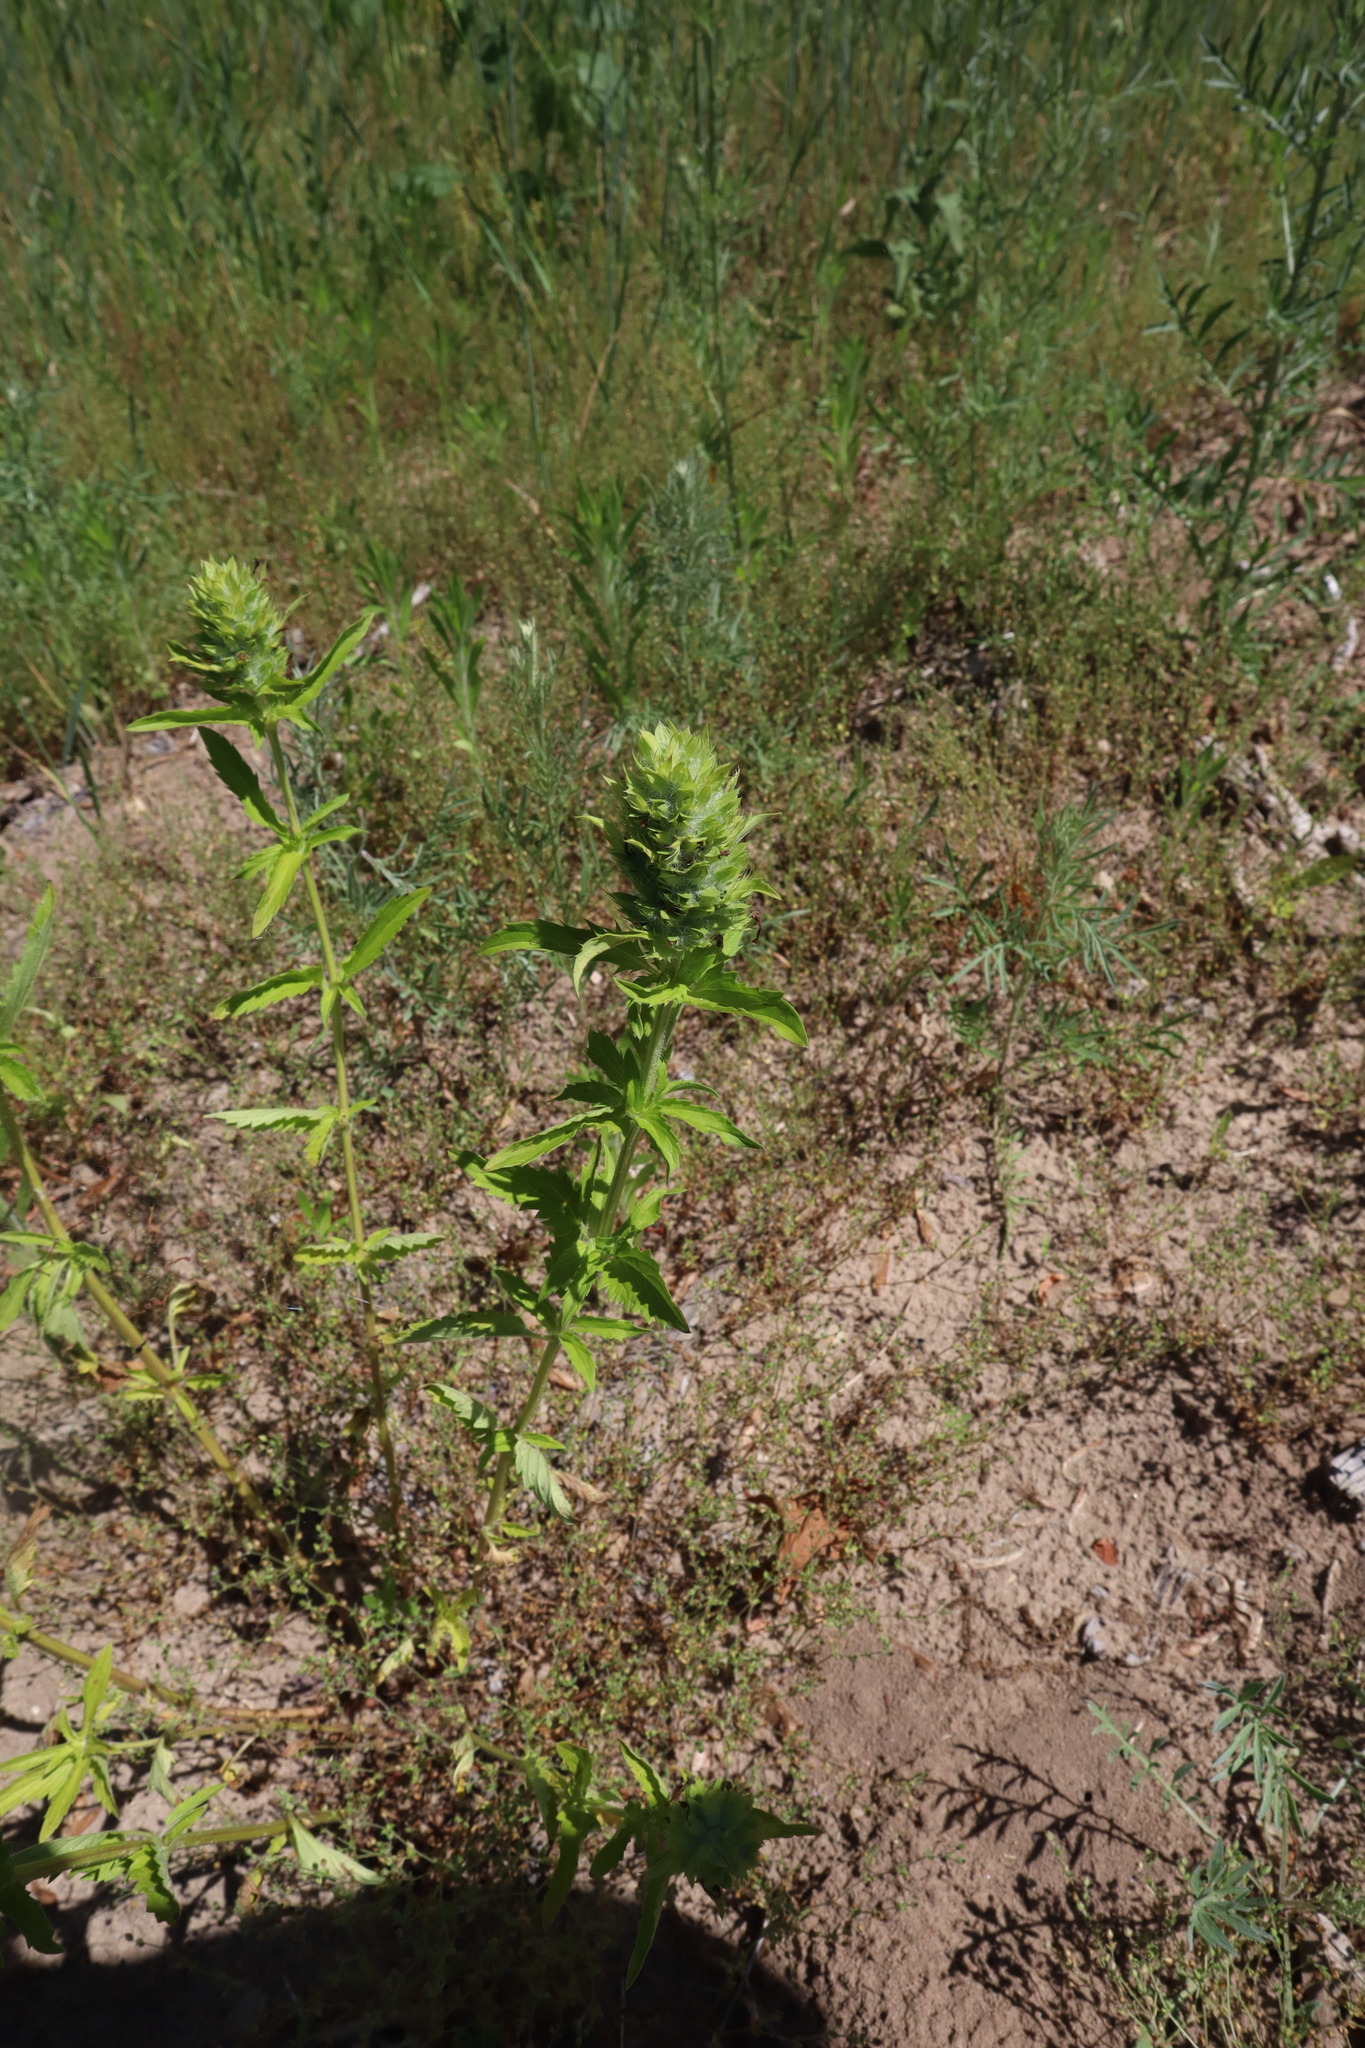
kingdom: Plantae
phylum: Tracheophyta
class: Magnoliopsida
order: Lamiales
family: Lamiaceae
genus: Dracocephalum
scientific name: Dracocephalum parviflorum
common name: American dragonhead
